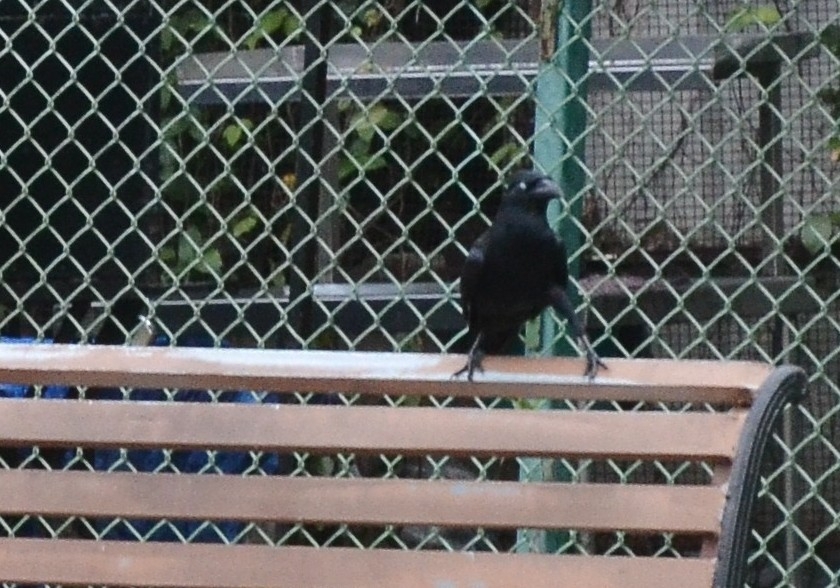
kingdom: Animalia
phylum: Chordata
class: Aves
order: Passeriformes
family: Corvidae
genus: Corvus
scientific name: Corvus macrorhynchos
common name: Large-billed crow
